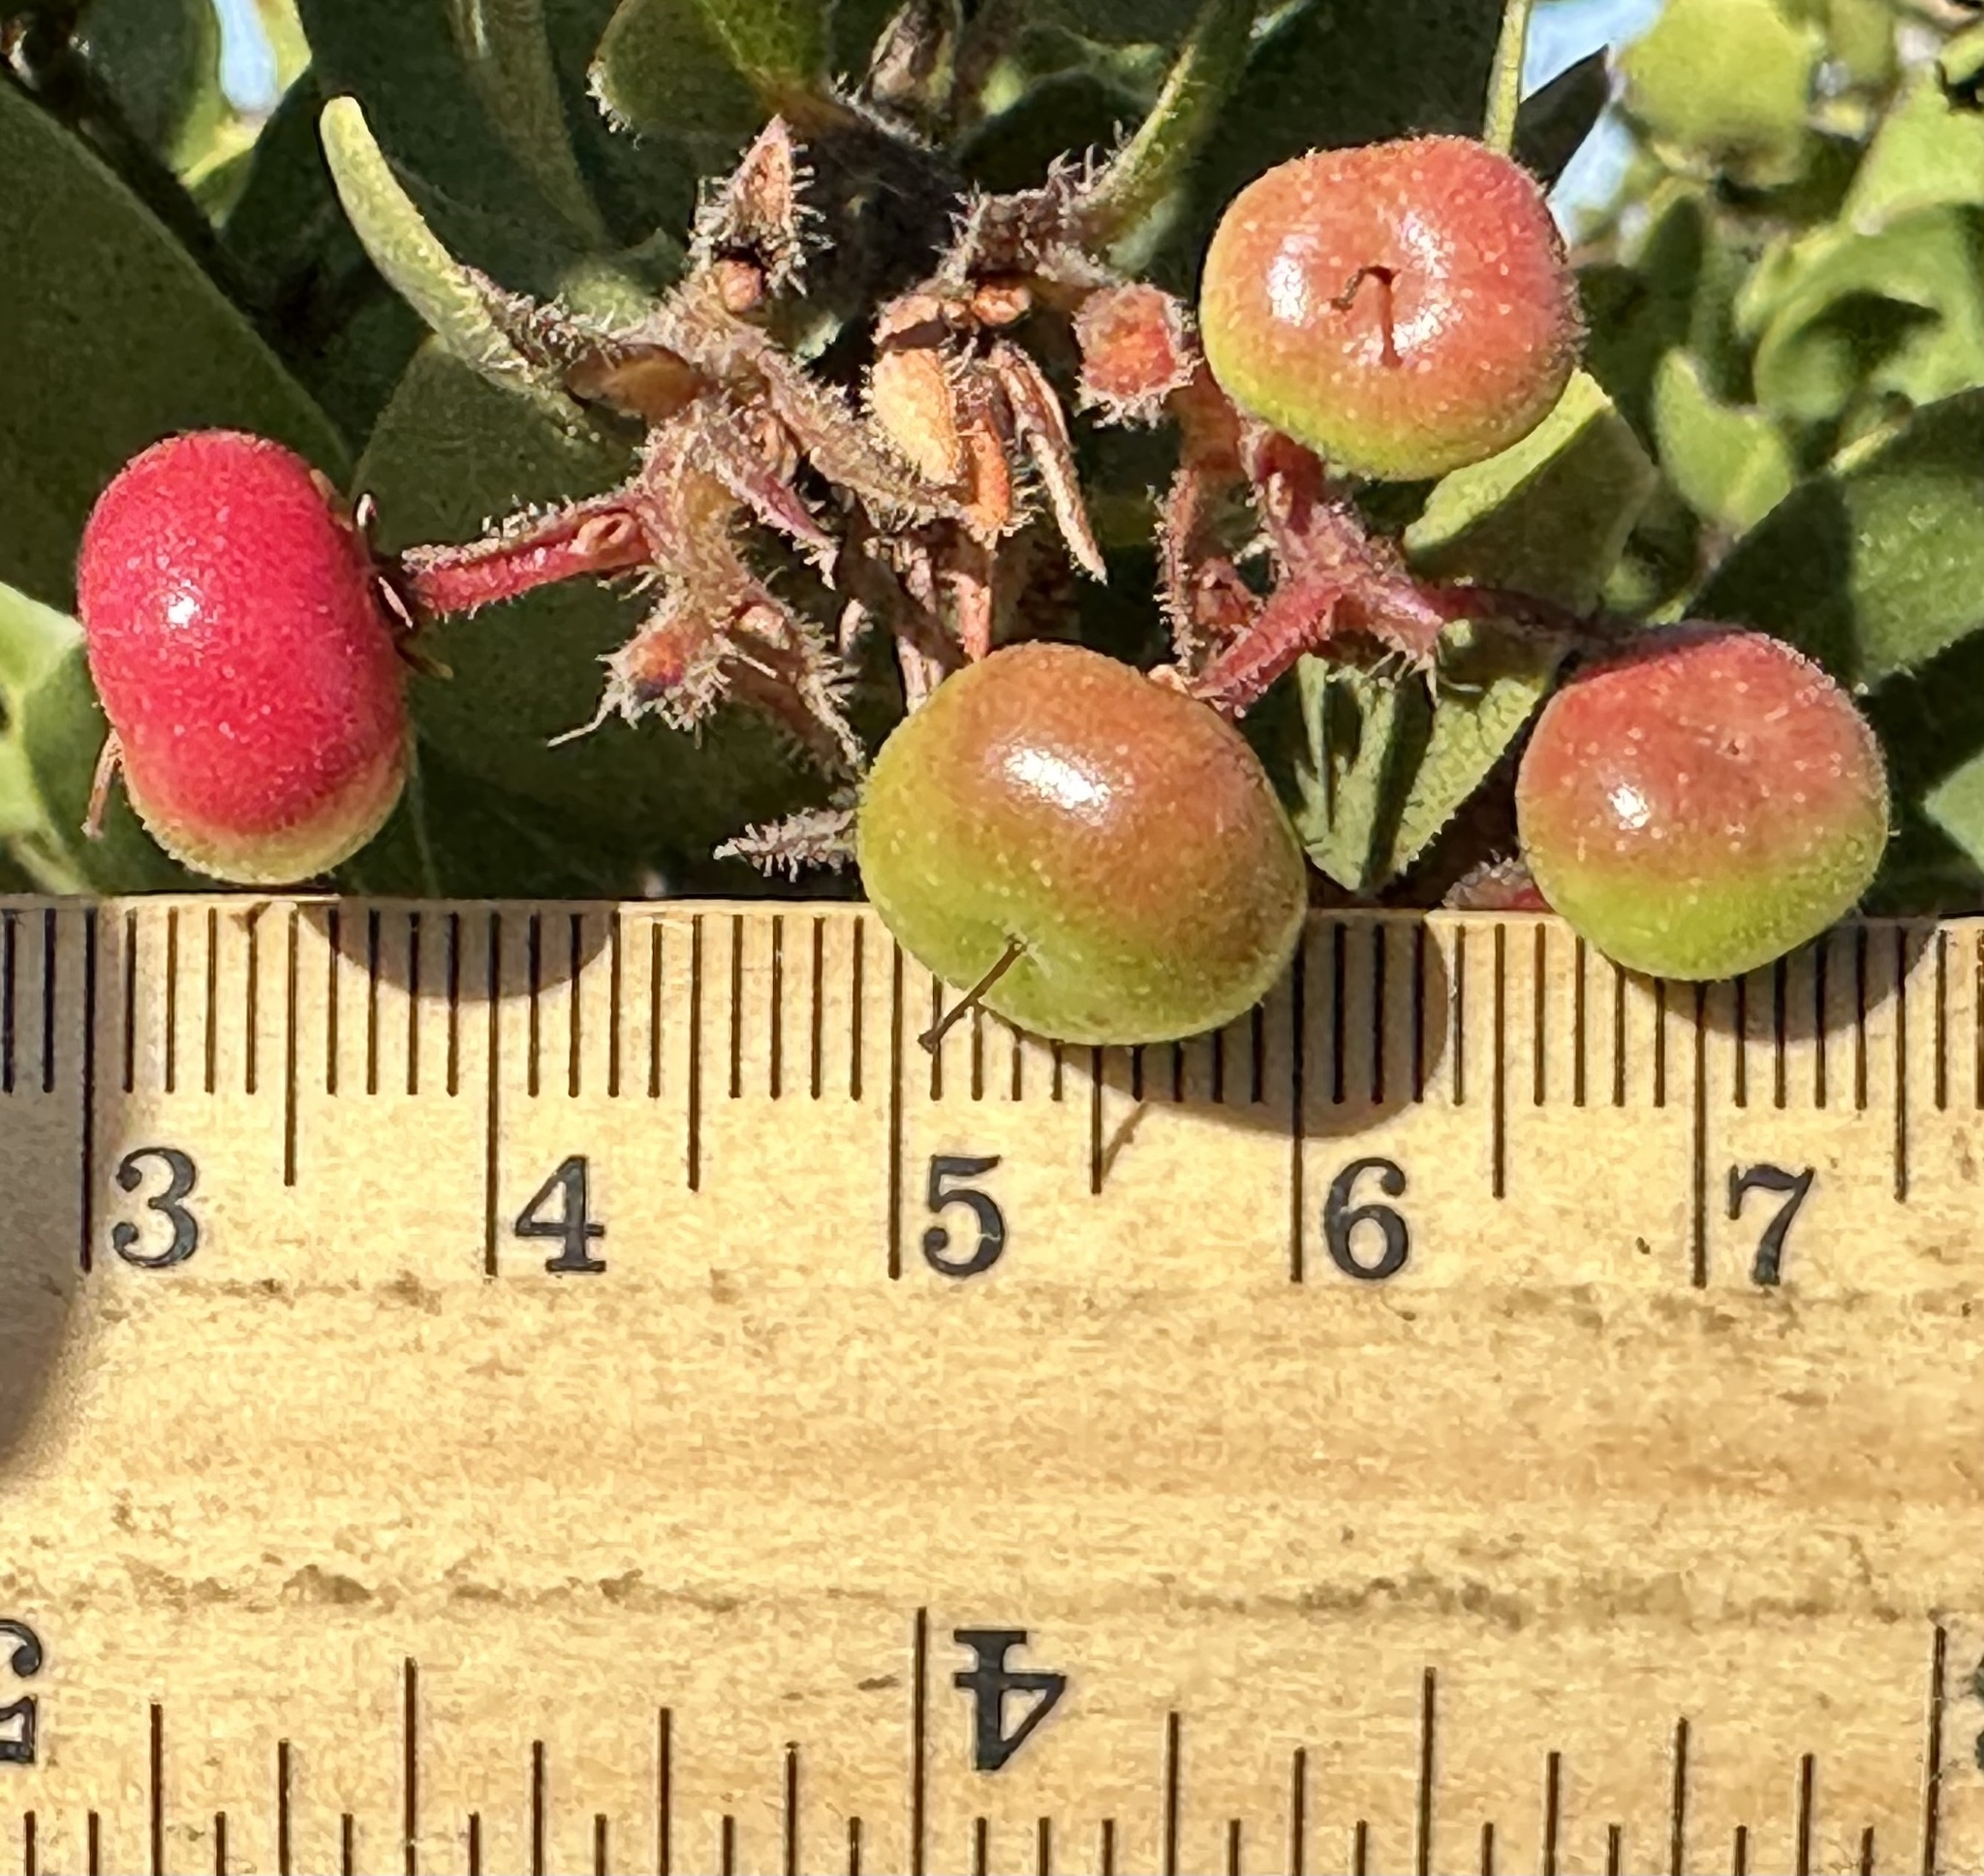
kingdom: Plantae
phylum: Tracheophyta
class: Magnoliopsida
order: Ericales
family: Ericaceae
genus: Arctostaphylos
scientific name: Arctostaphylos montereyensis
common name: Monterey manzanita
